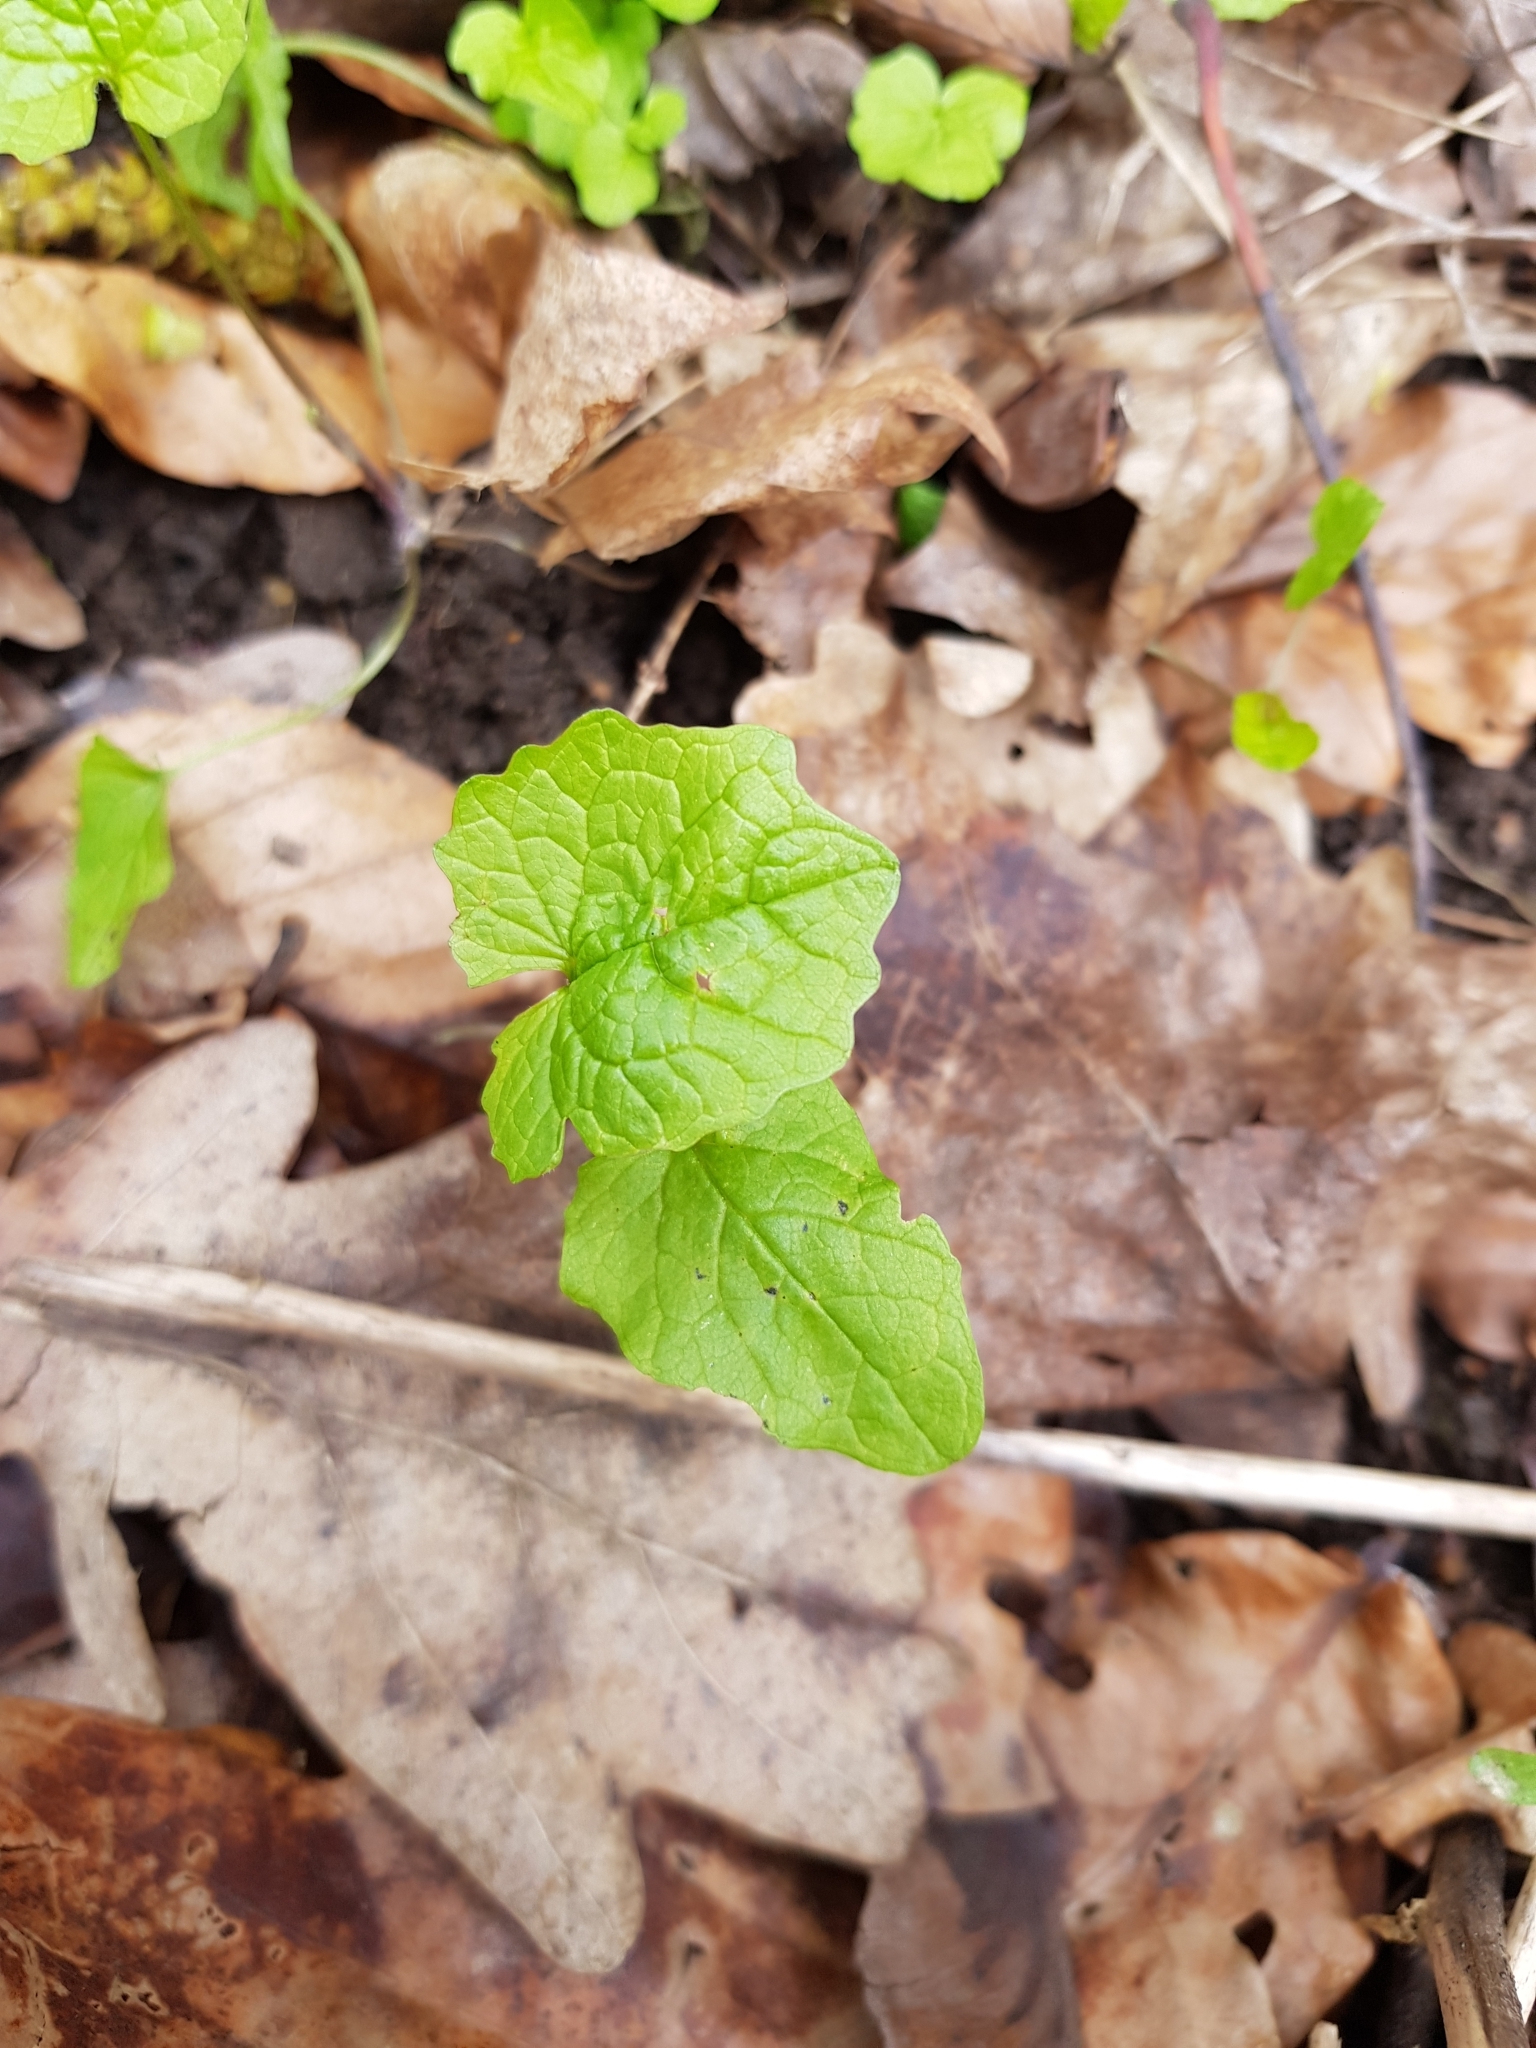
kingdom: Plantae
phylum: Tracheophyta
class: Magnoliopsida
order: Brassicales
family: Brassicaceae
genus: Alliaria
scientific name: Alliaria petiolata
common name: Garlic mustard
